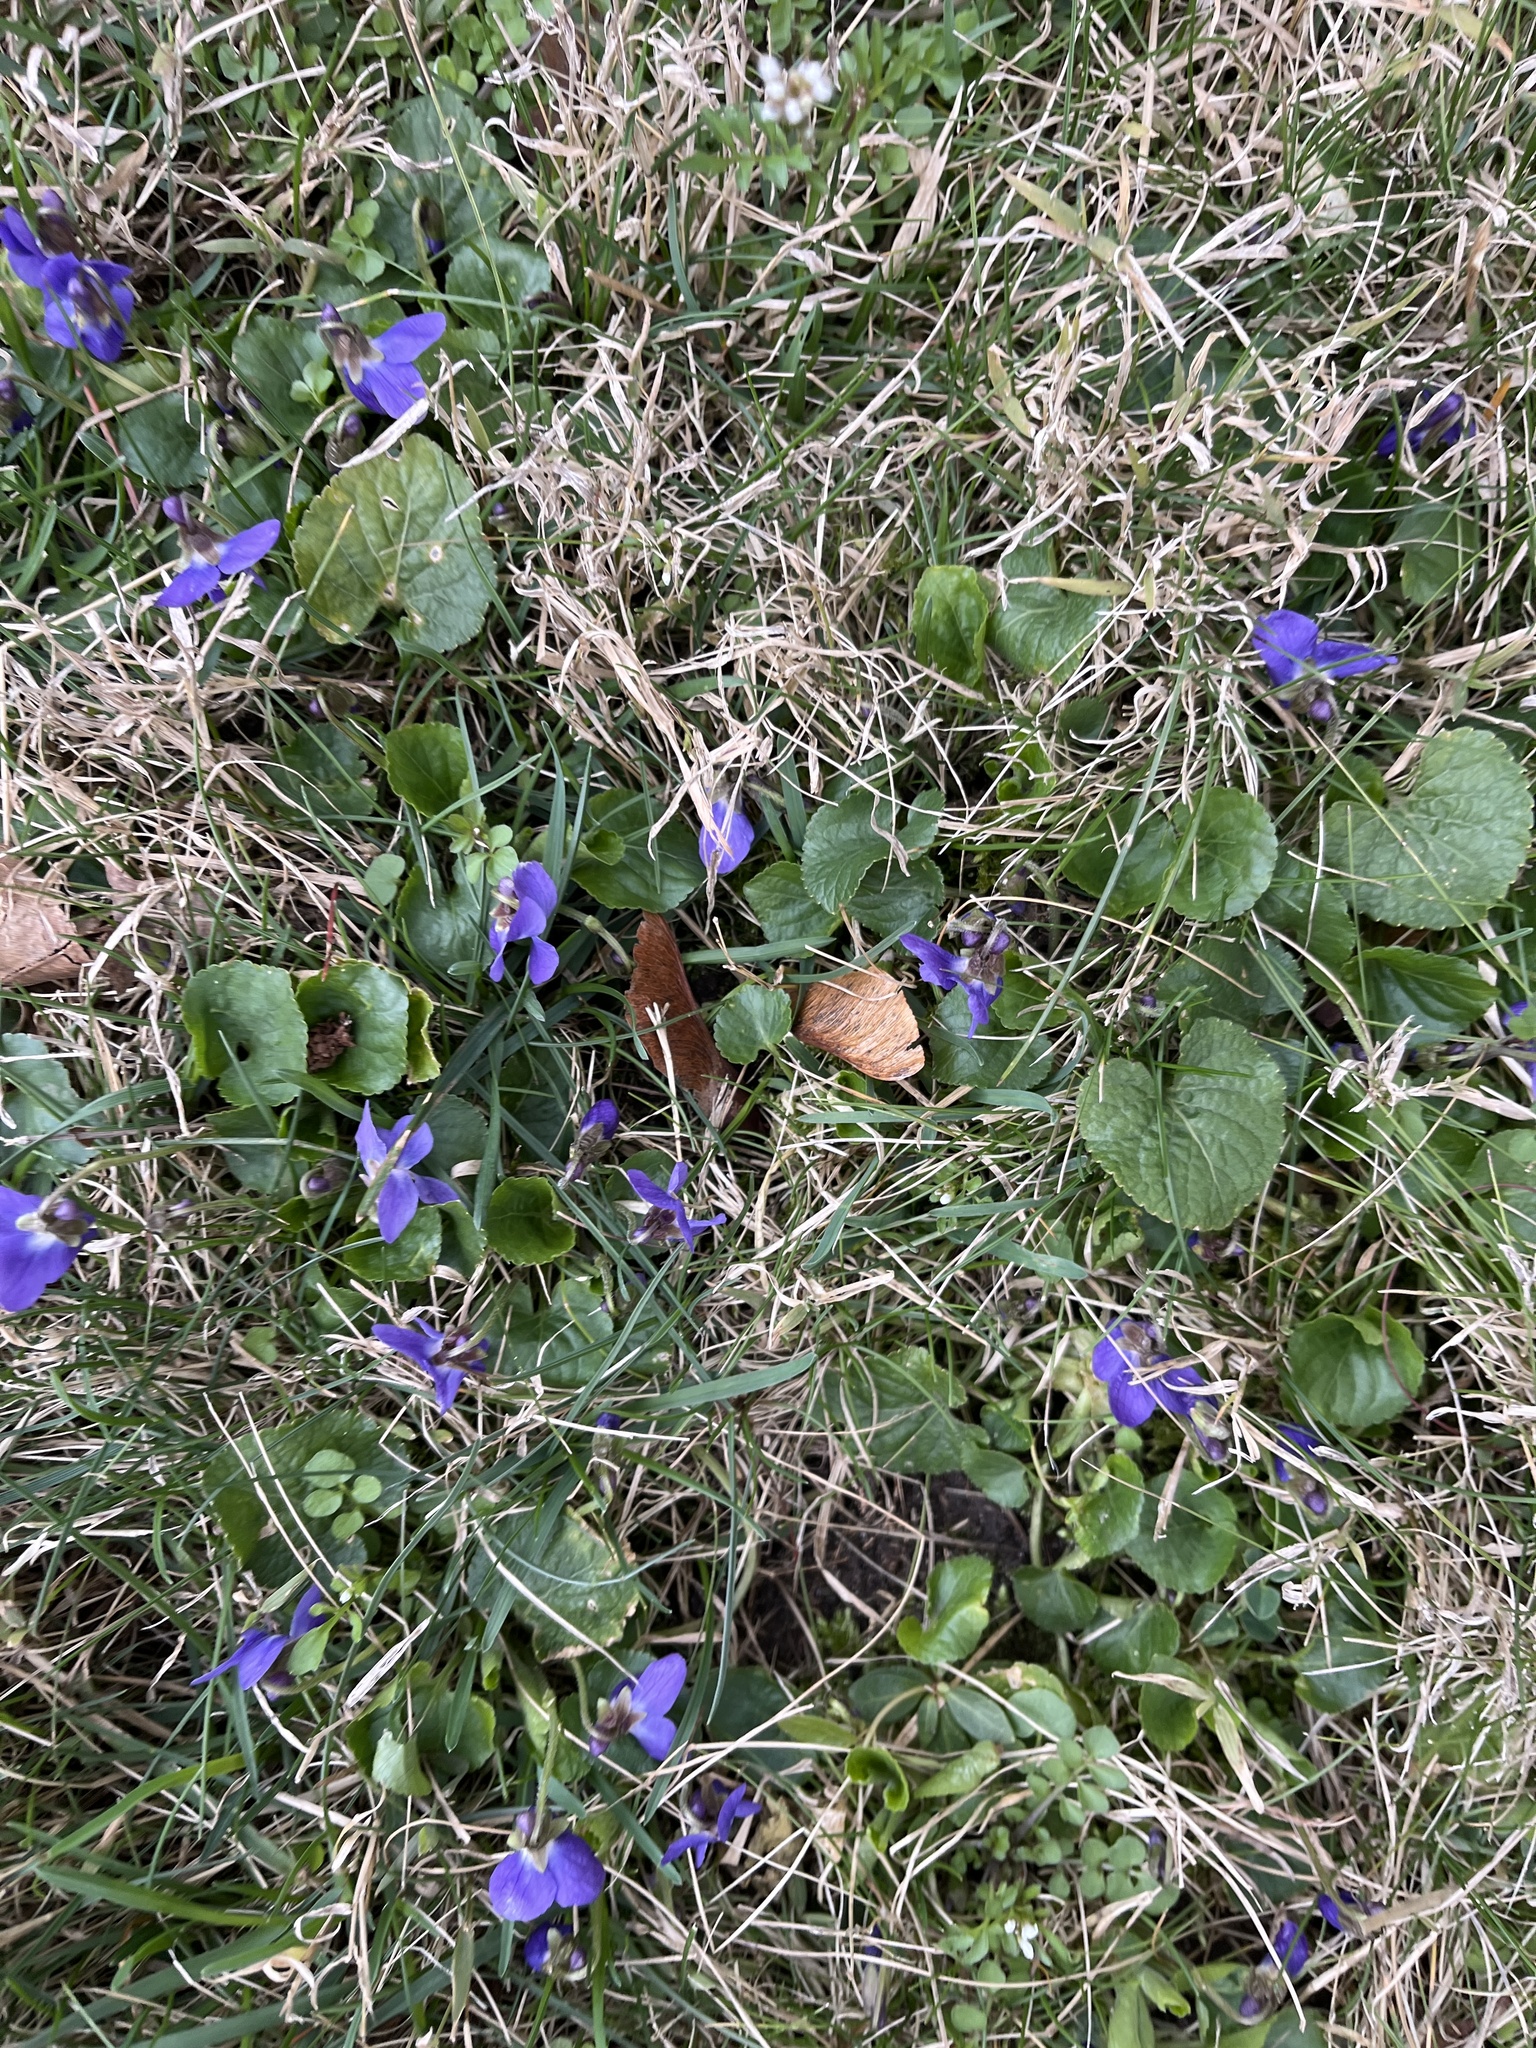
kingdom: Plantae
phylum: Tracheophyta
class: Magnoliopsida
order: Malpighiales
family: Violaceae
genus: Viola
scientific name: Viola odorata
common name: Sweet violet
